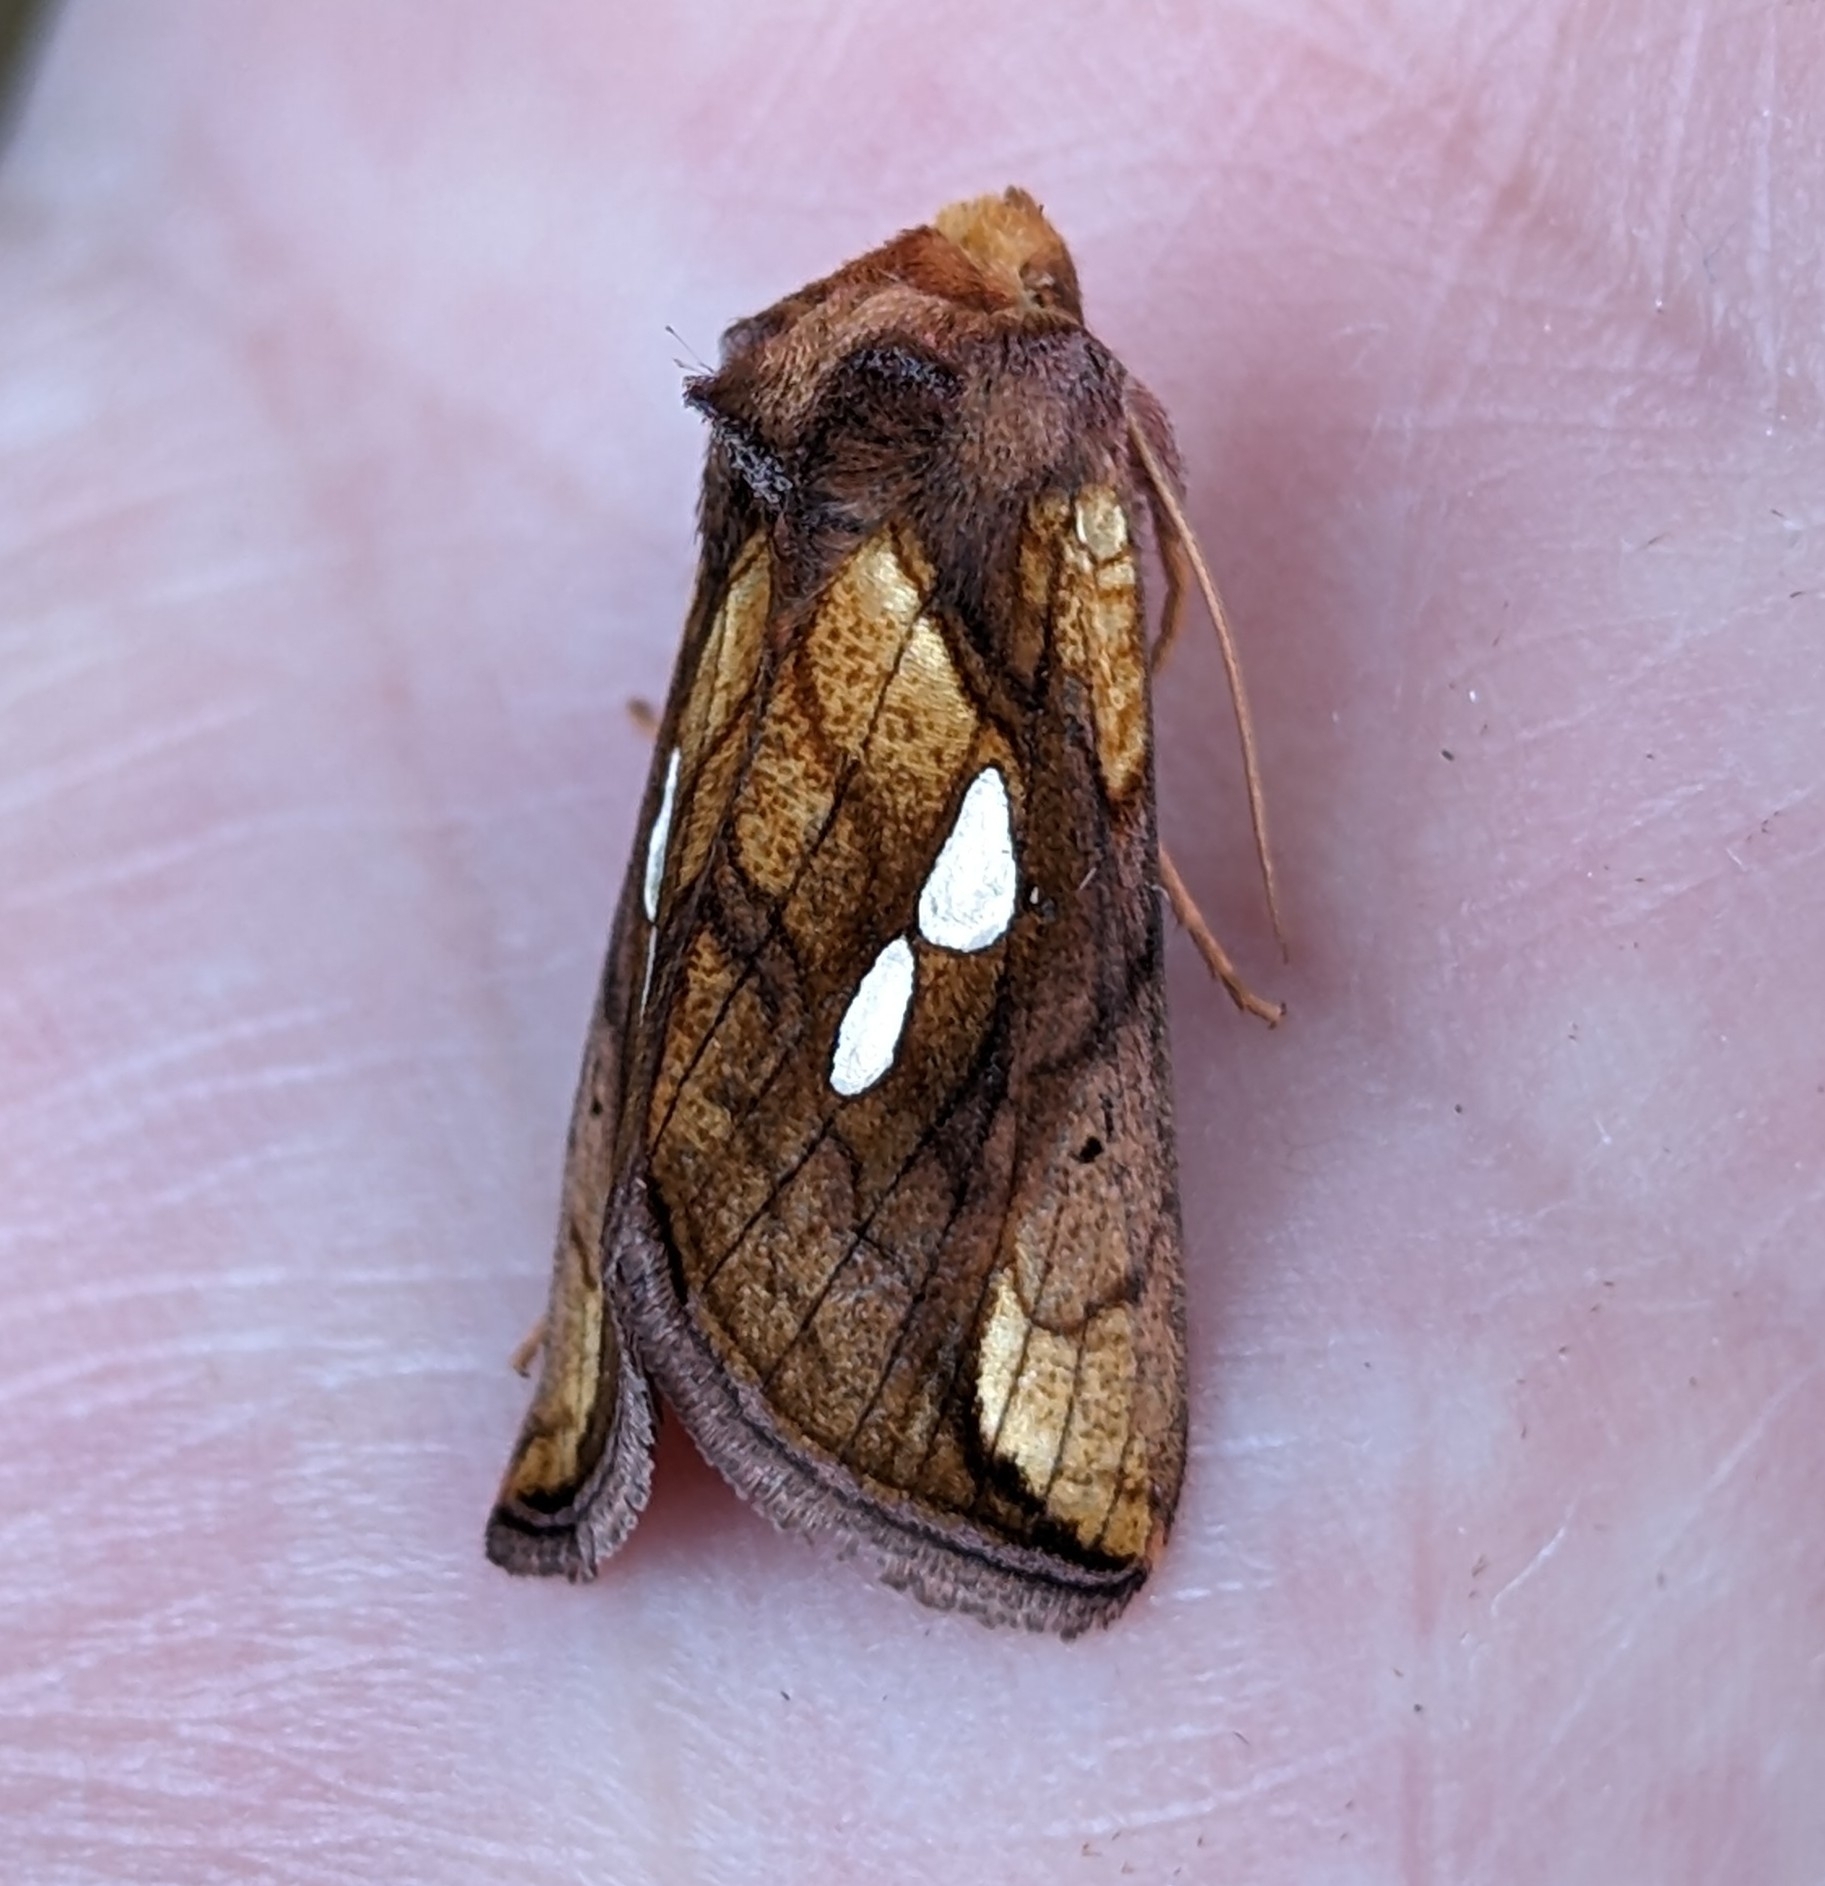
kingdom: Animalia
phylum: Arthropoda
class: Insecta
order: Lepidoptera
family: Noctuidae
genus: Plusia
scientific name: Plusia nichollae
